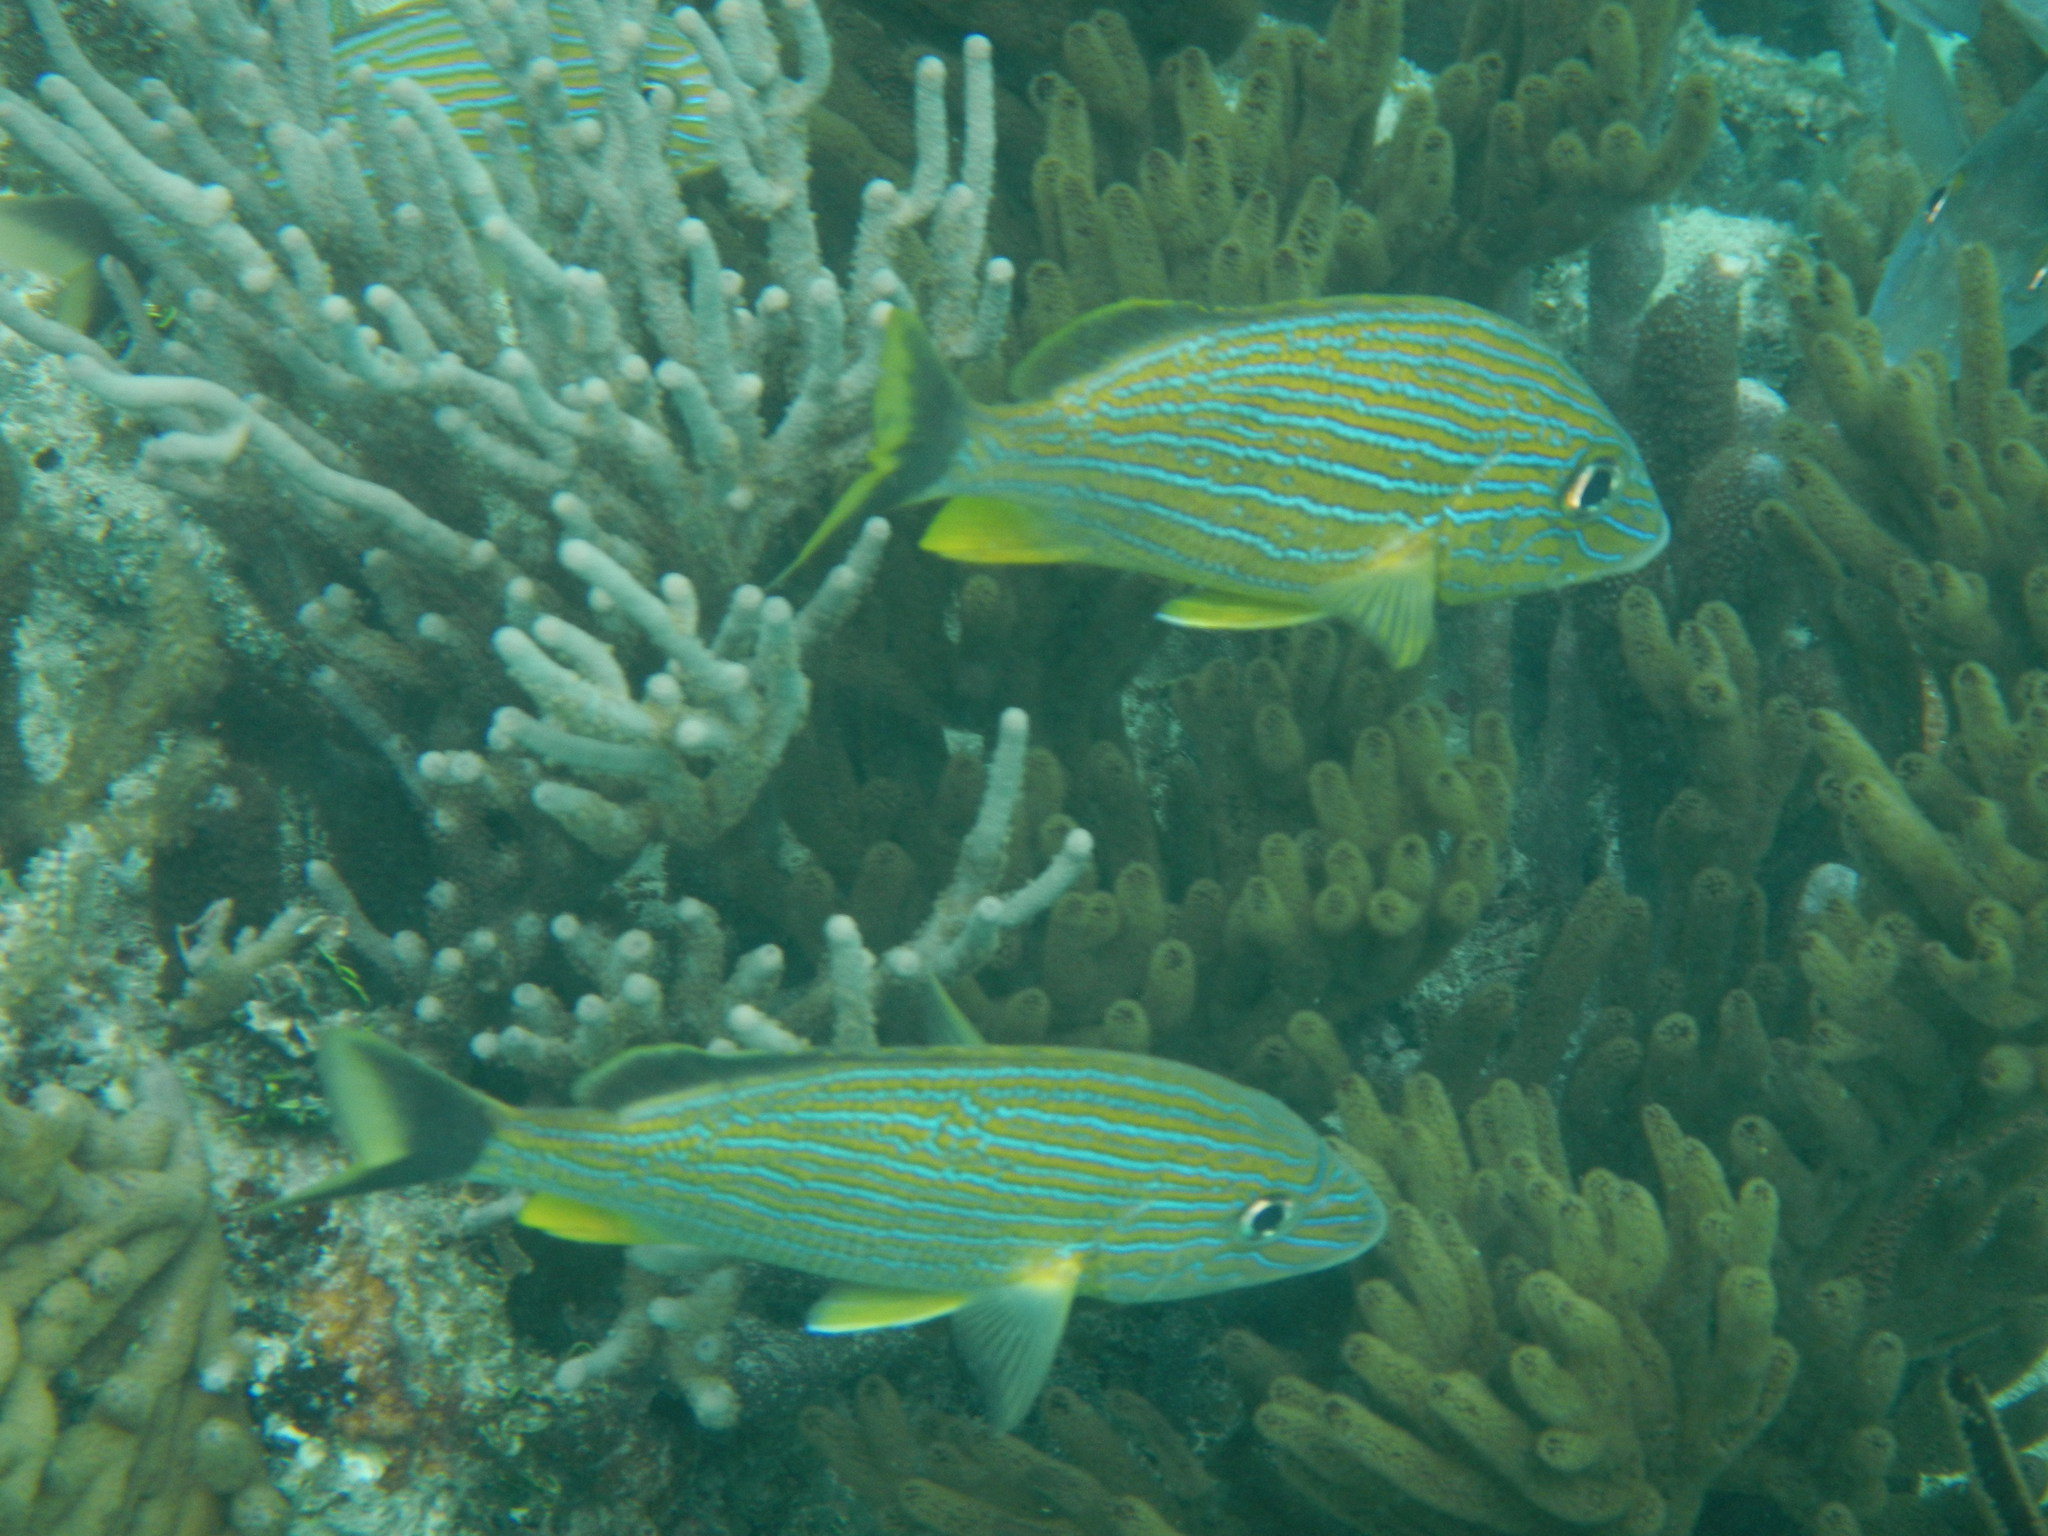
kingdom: Animalia
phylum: Chordata
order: Perciformes
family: Haemulidae
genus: Haemulon
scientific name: Haemulon sciurus
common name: Bluestriped grunt
